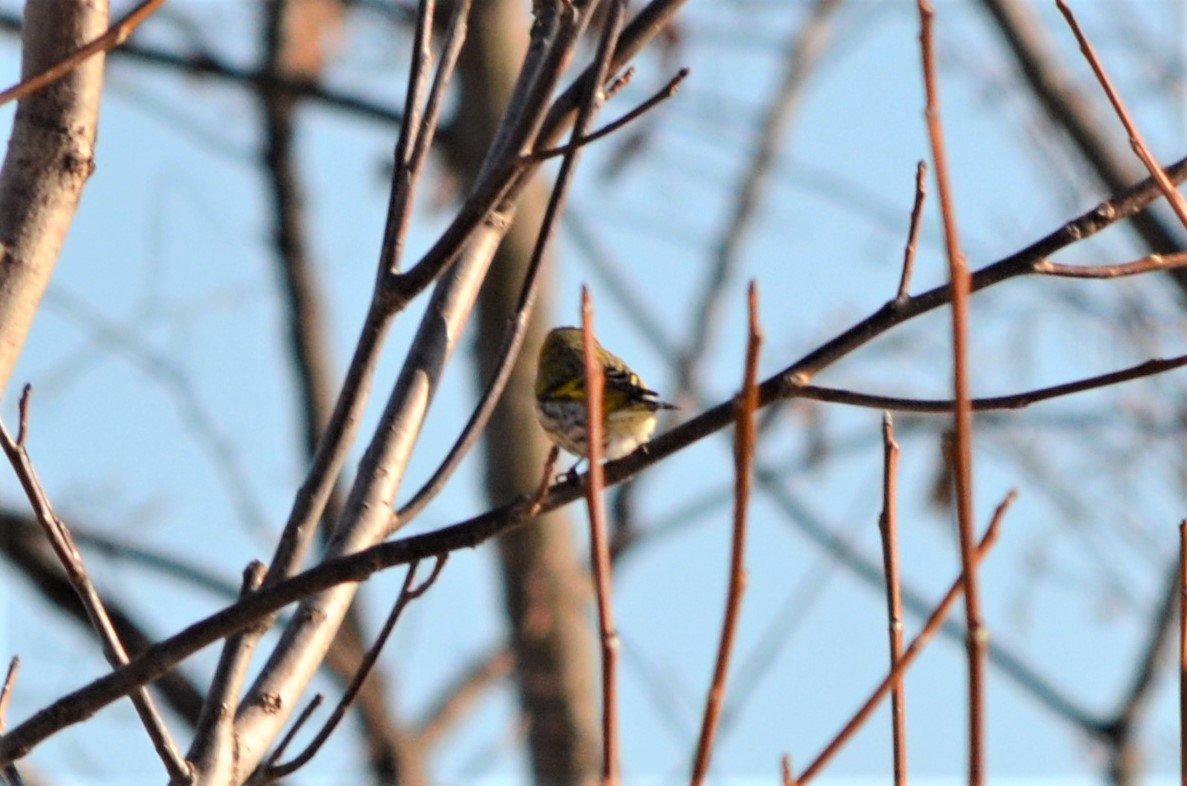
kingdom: Animalia
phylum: Chordata
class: Aves
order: Passeriformes
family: Fringillidae
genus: Spinus
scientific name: Spinus spinus
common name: Eurasian siskin
